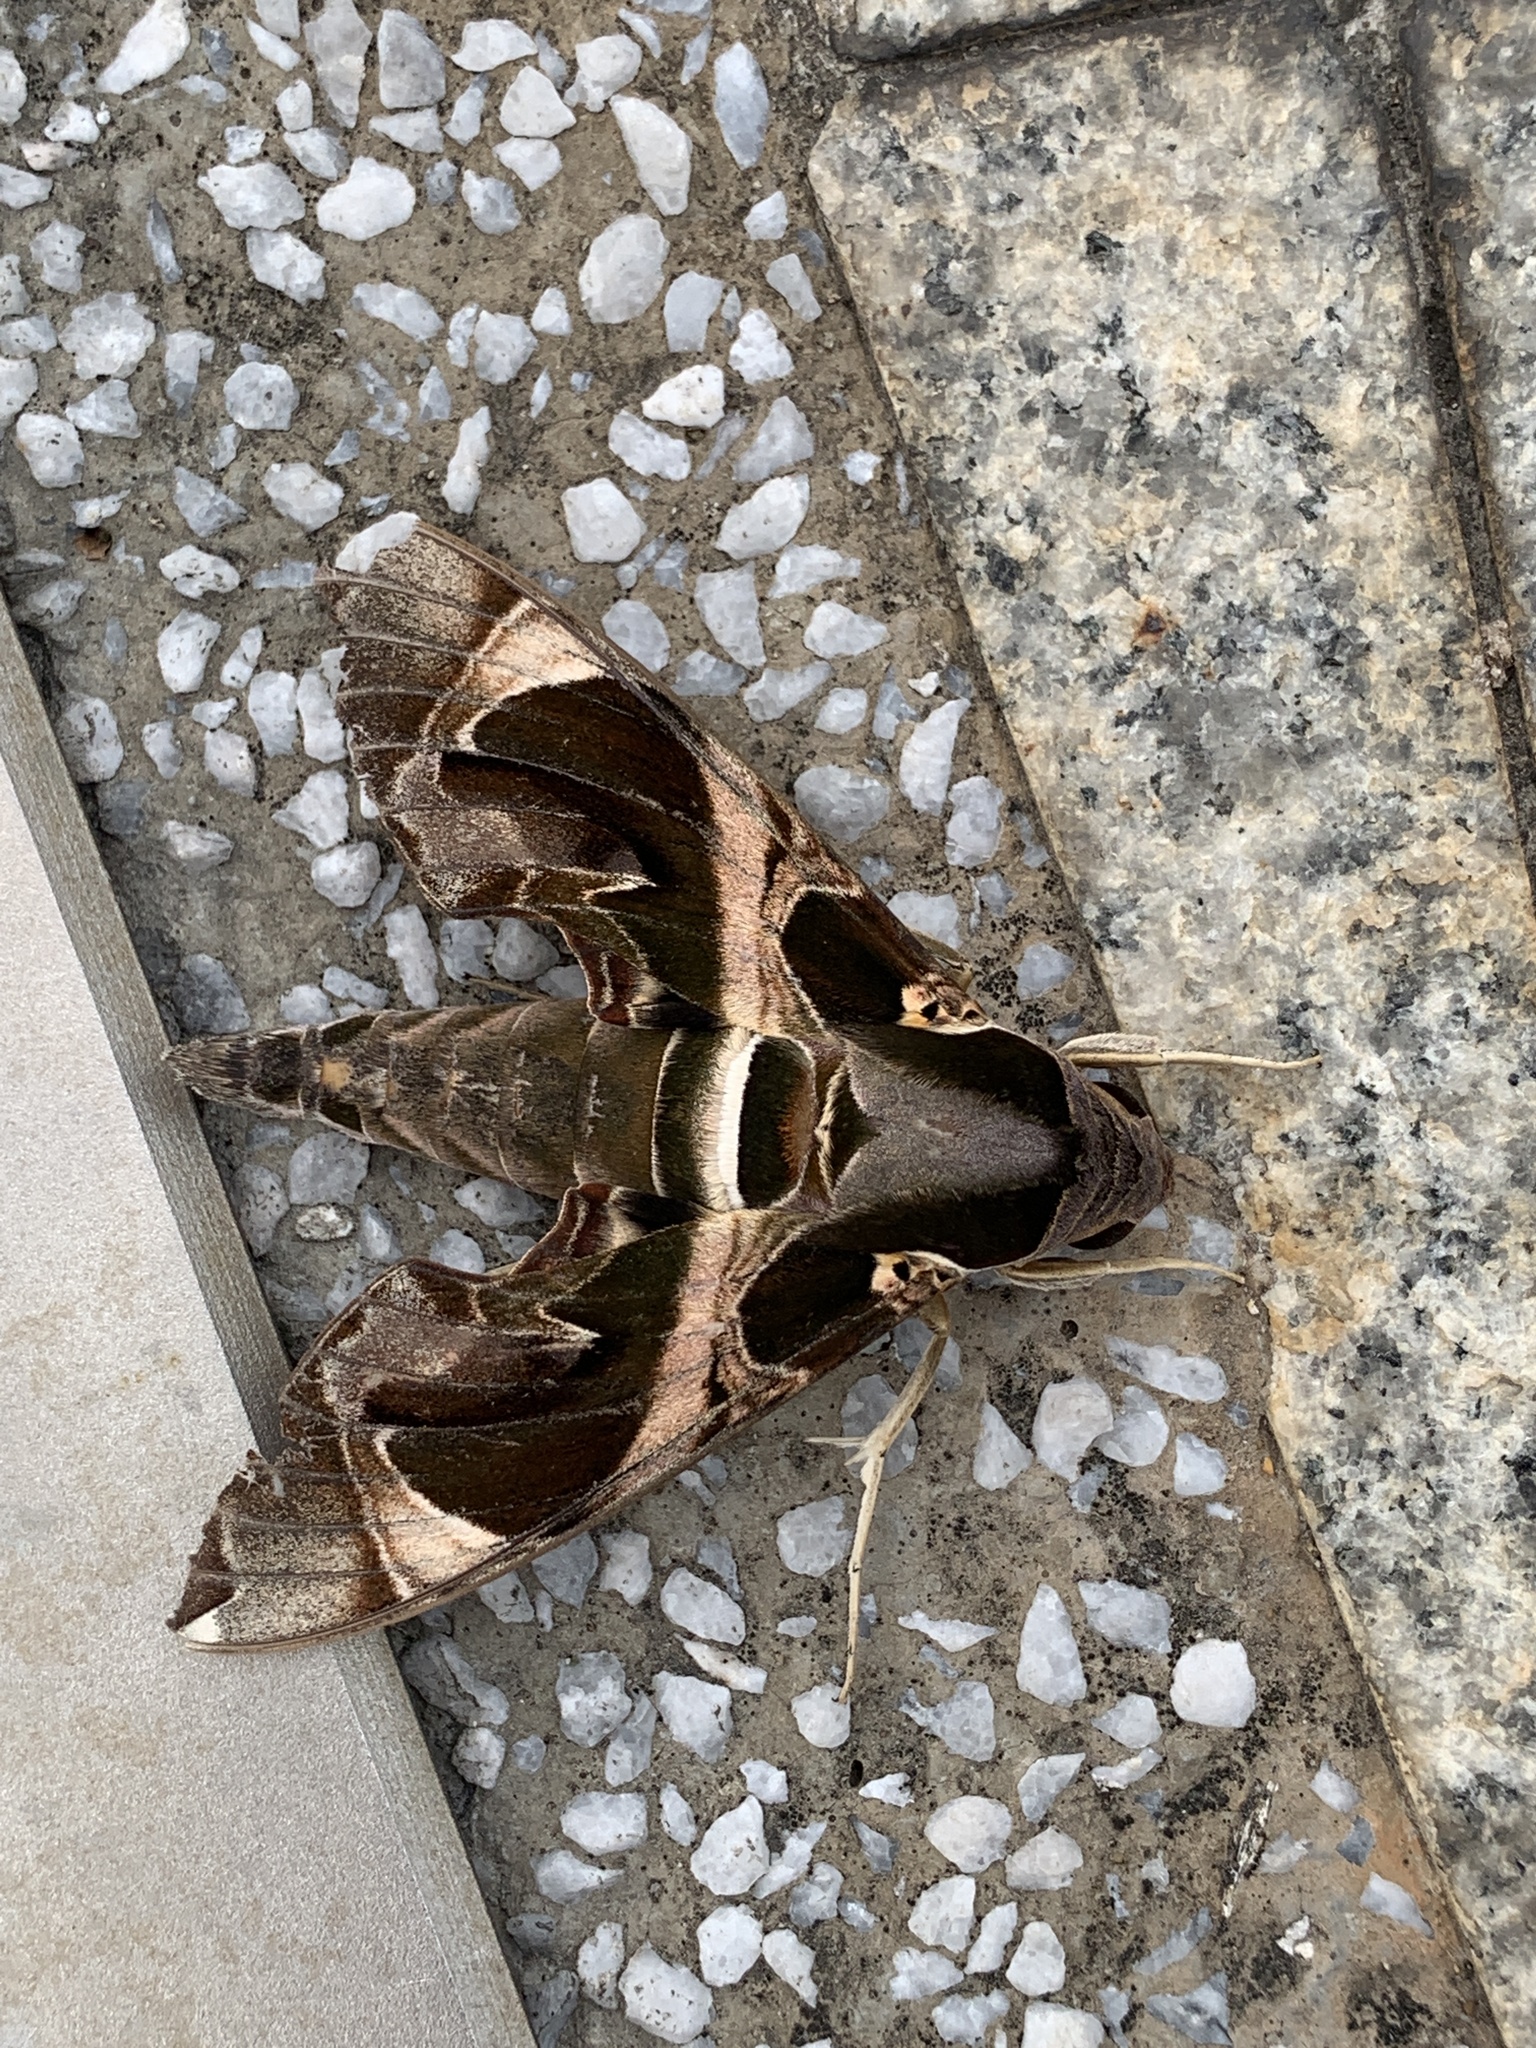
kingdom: Animalia
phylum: Arthropoda
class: Insecta
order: Lepidoptera
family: Sphingidae
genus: Daphnis
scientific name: Daphnis hypothous
